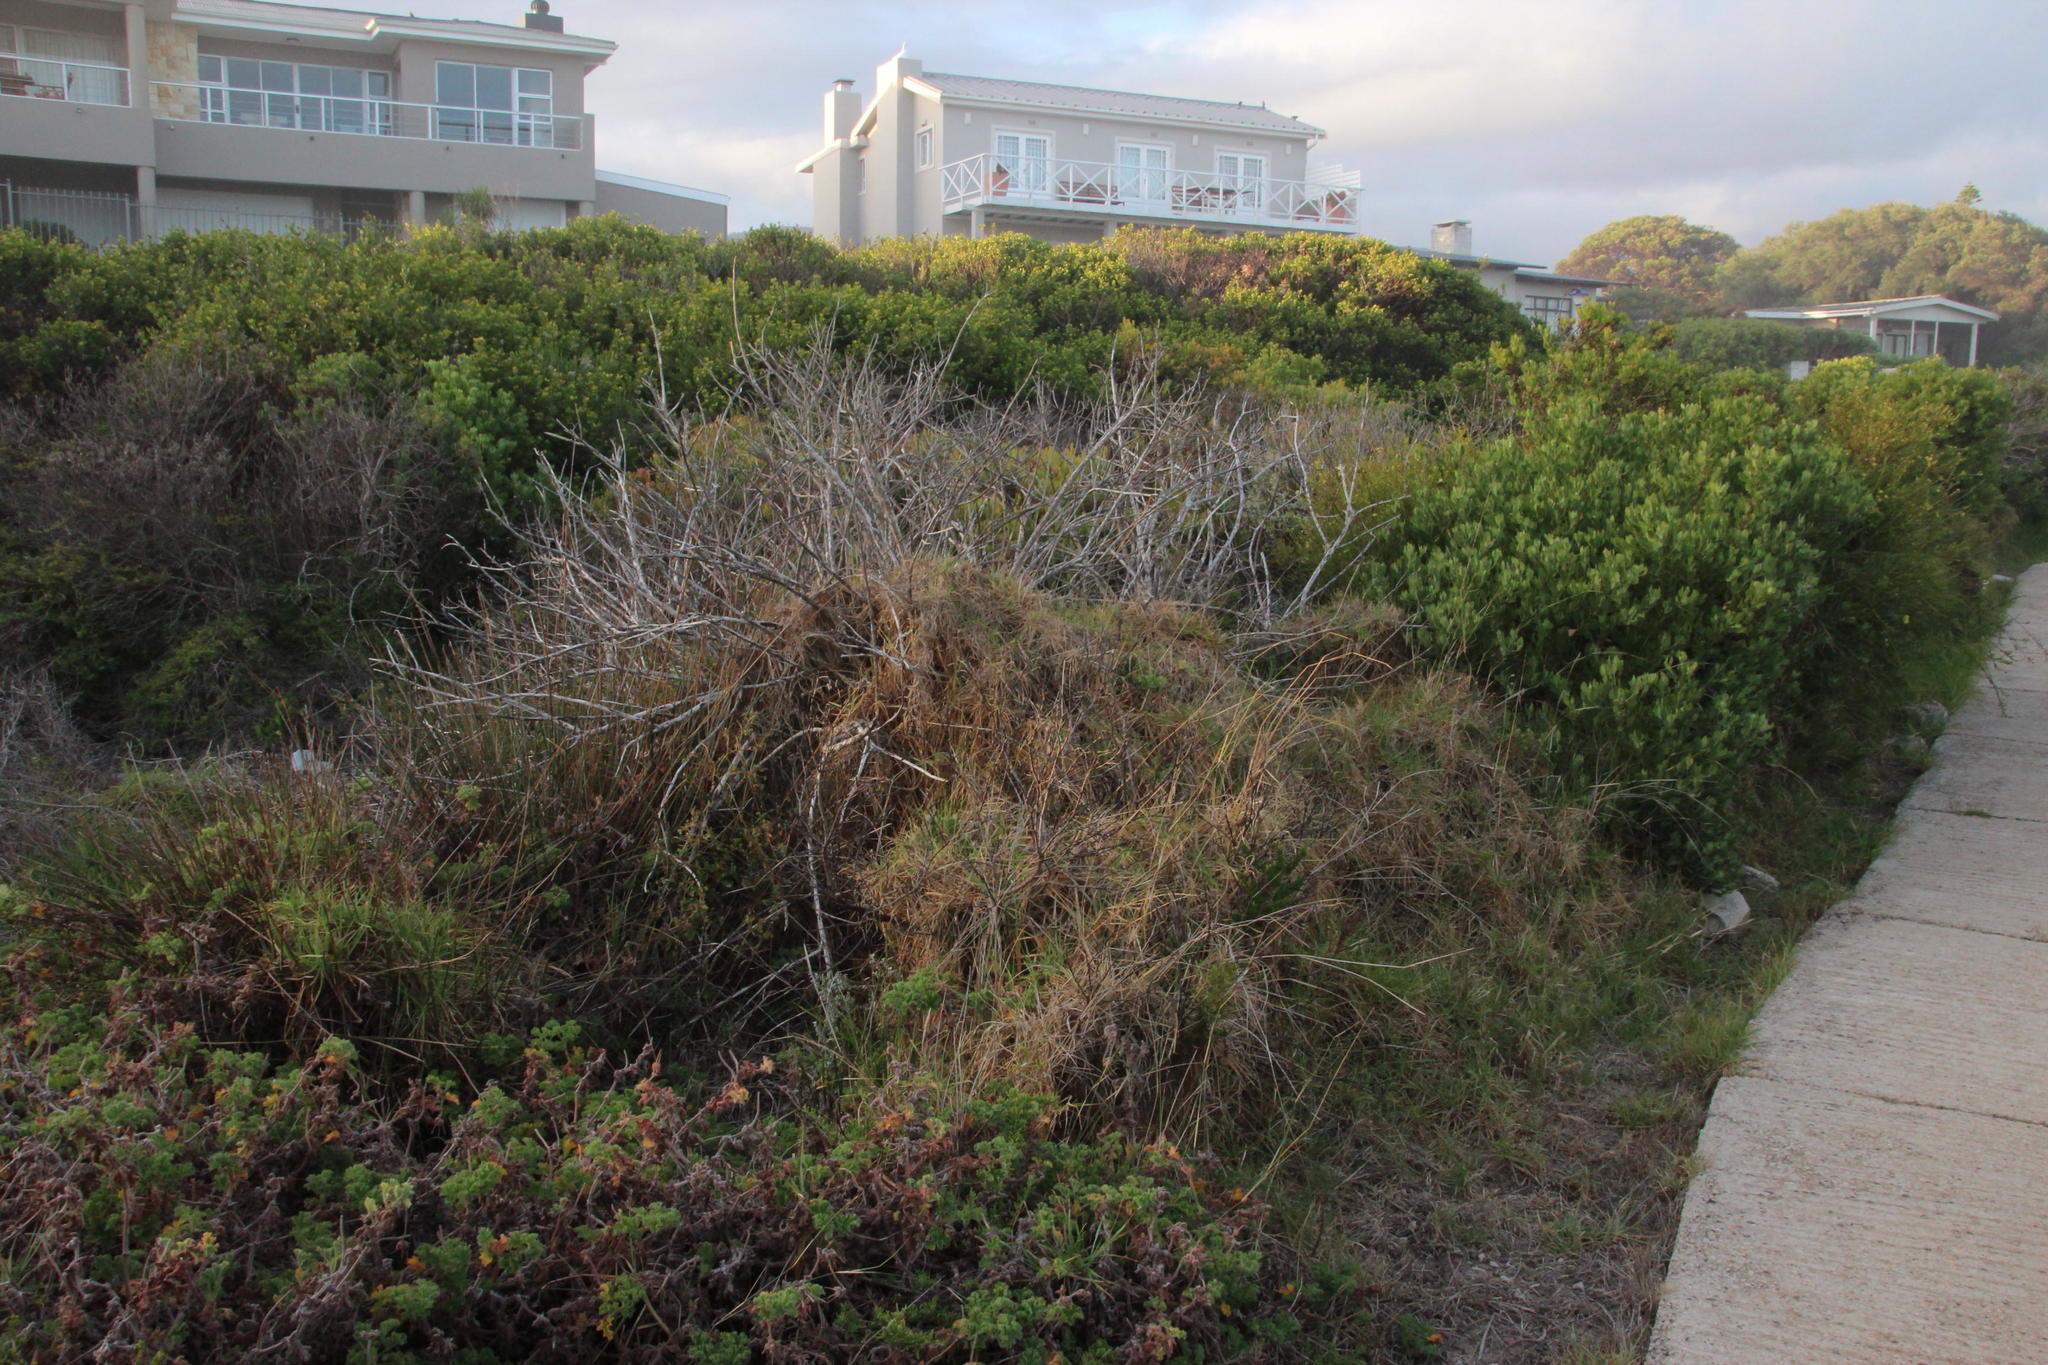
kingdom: Plantae
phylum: Tracheophyta
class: Liliopsida
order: Poales
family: Poaceae
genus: Cenchrus
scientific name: Cenchrus clandestinus
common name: Kikuyugrass
